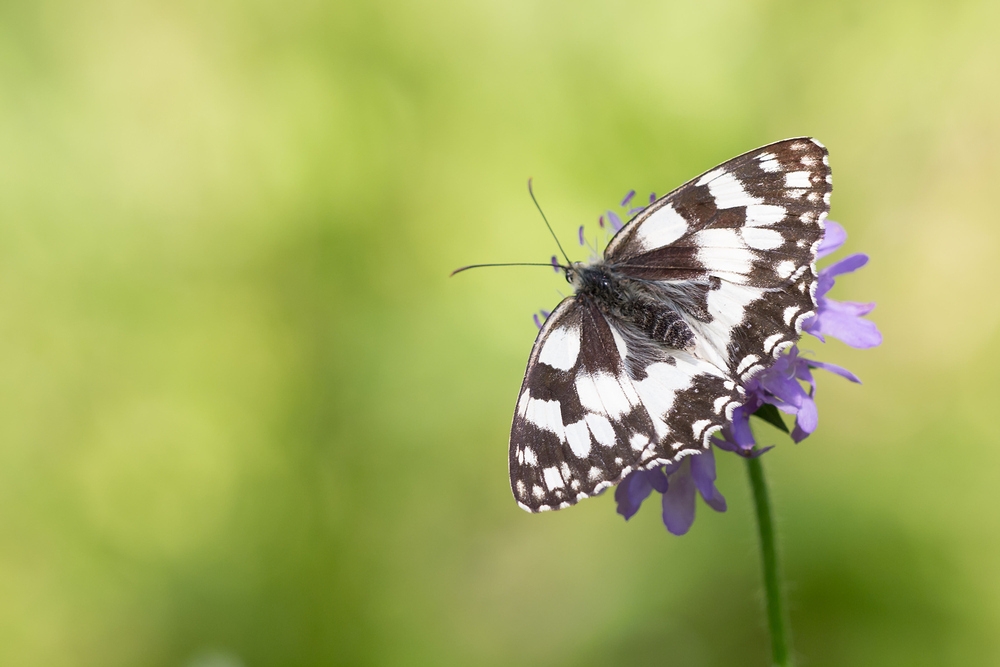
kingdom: Animalia
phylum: Arthropoda
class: Insecta
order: Lepidoptera
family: Nymphalidae
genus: Melanargia
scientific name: Melanargia galathea
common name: Marbled white
